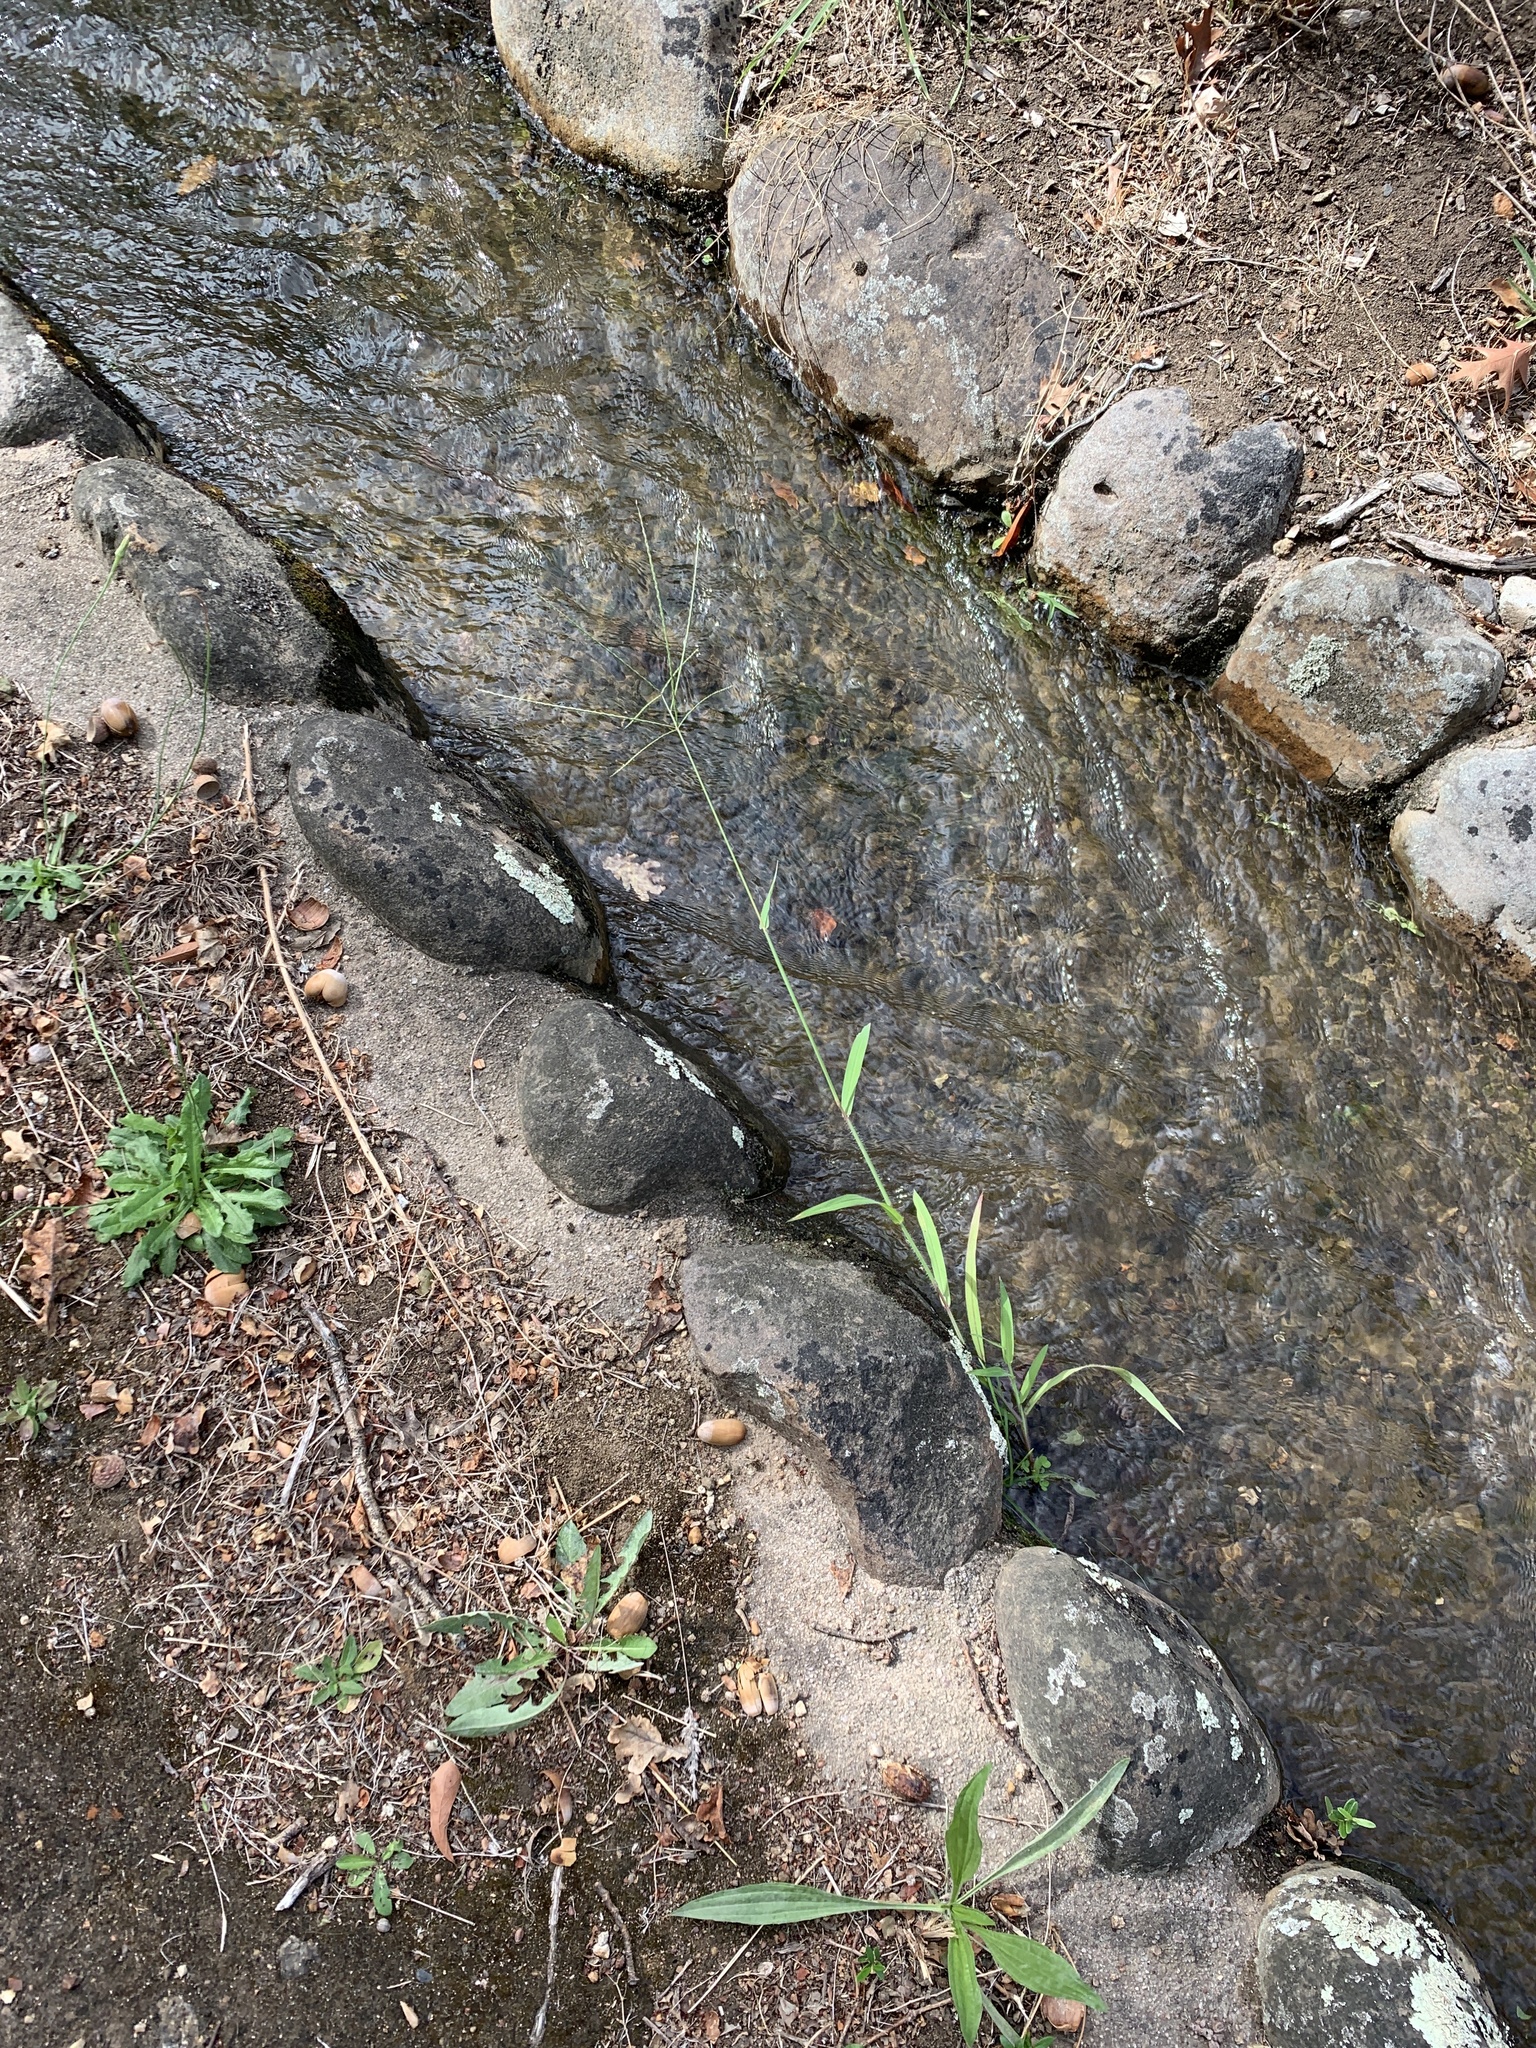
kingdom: Plantae
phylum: Tracheophyta
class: Liliopsida
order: Poales
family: Poaceae
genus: Digitaria
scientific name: Digitaria sanguinalis
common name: Hairy crabgrass
